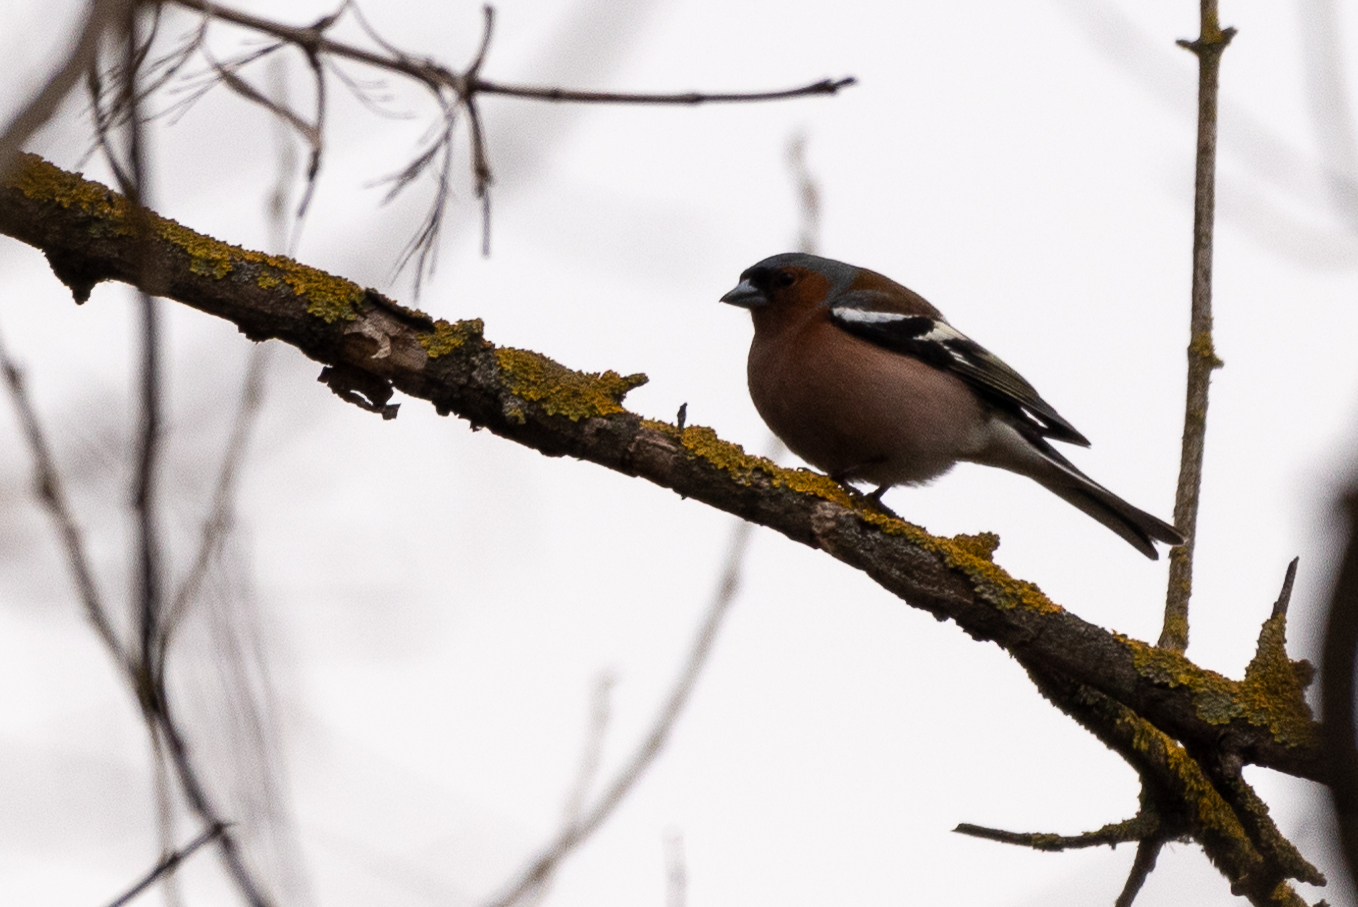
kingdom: Animalia
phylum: Chordata
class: Aves
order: Passeriformes
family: Fringillidae
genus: Fringilla
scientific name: Fringilla coelebs
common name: Common chaffinch
